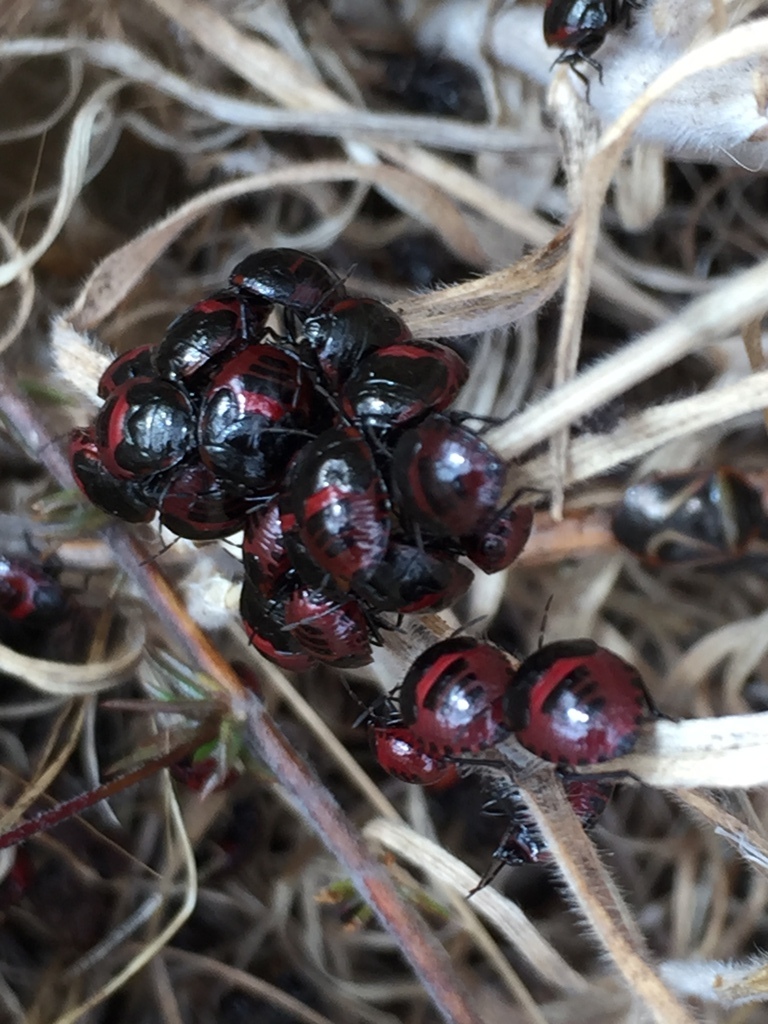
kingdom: Animalia
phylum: Arthropoda
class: Insecta
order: Hemiptera
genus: Dismegistus
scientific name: Dismegistus
